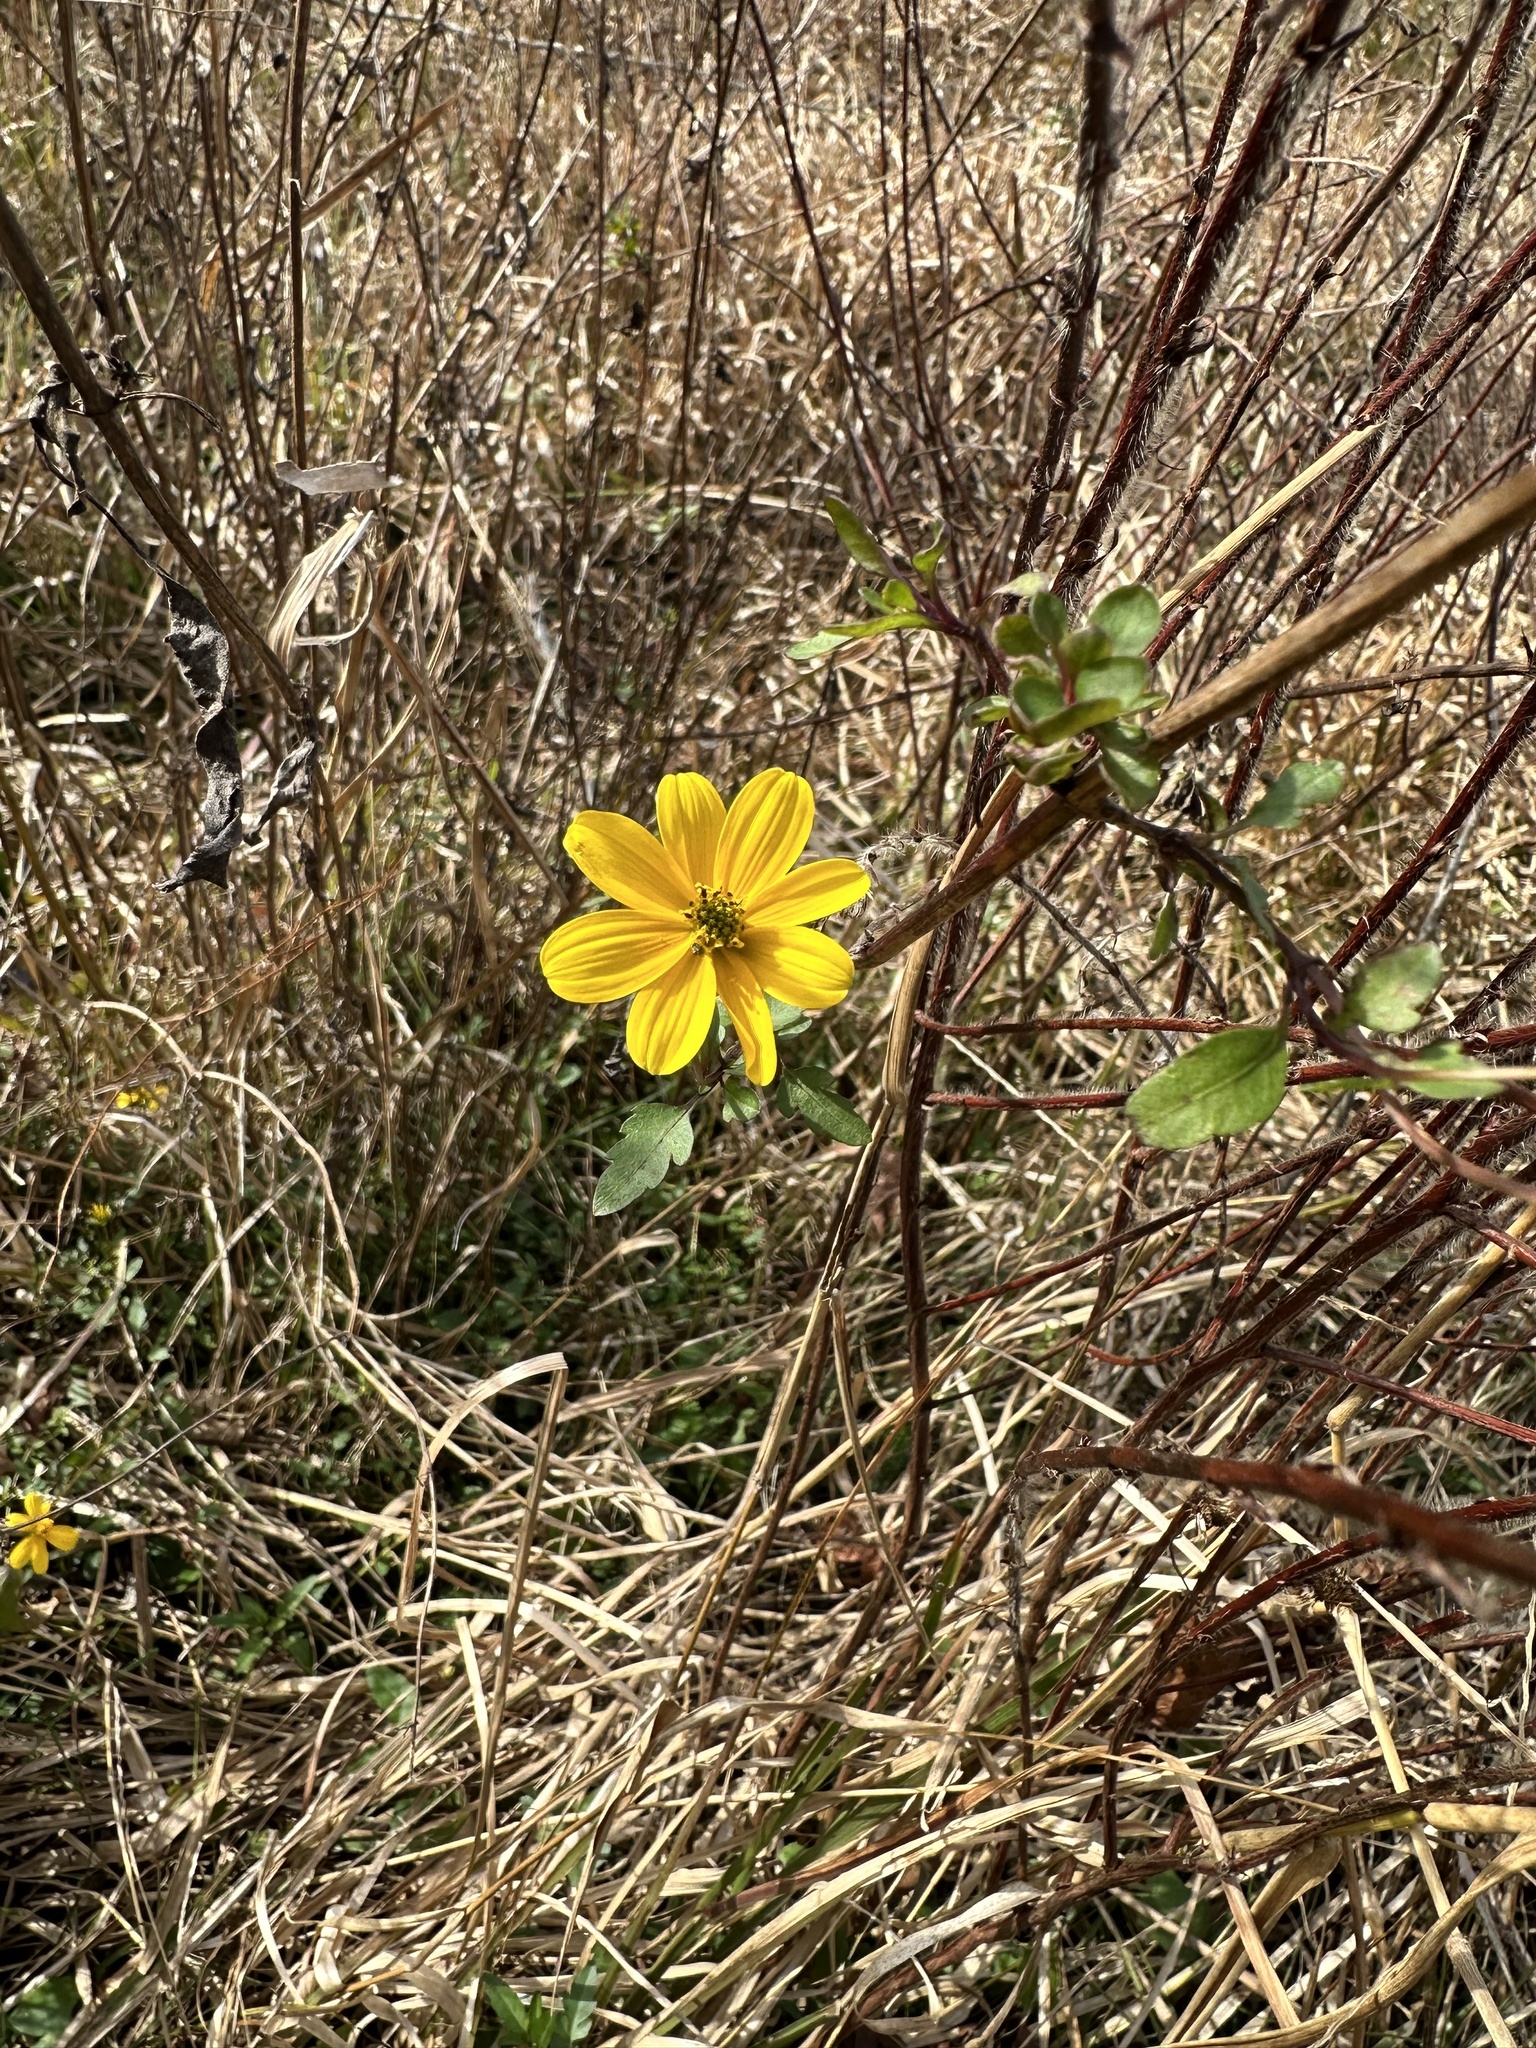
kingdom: Plantae
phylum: Tracheophyta
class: Magnoliopsida
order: Asterales
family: Asteraceae
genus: Bidens
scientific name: Bidens mitis
